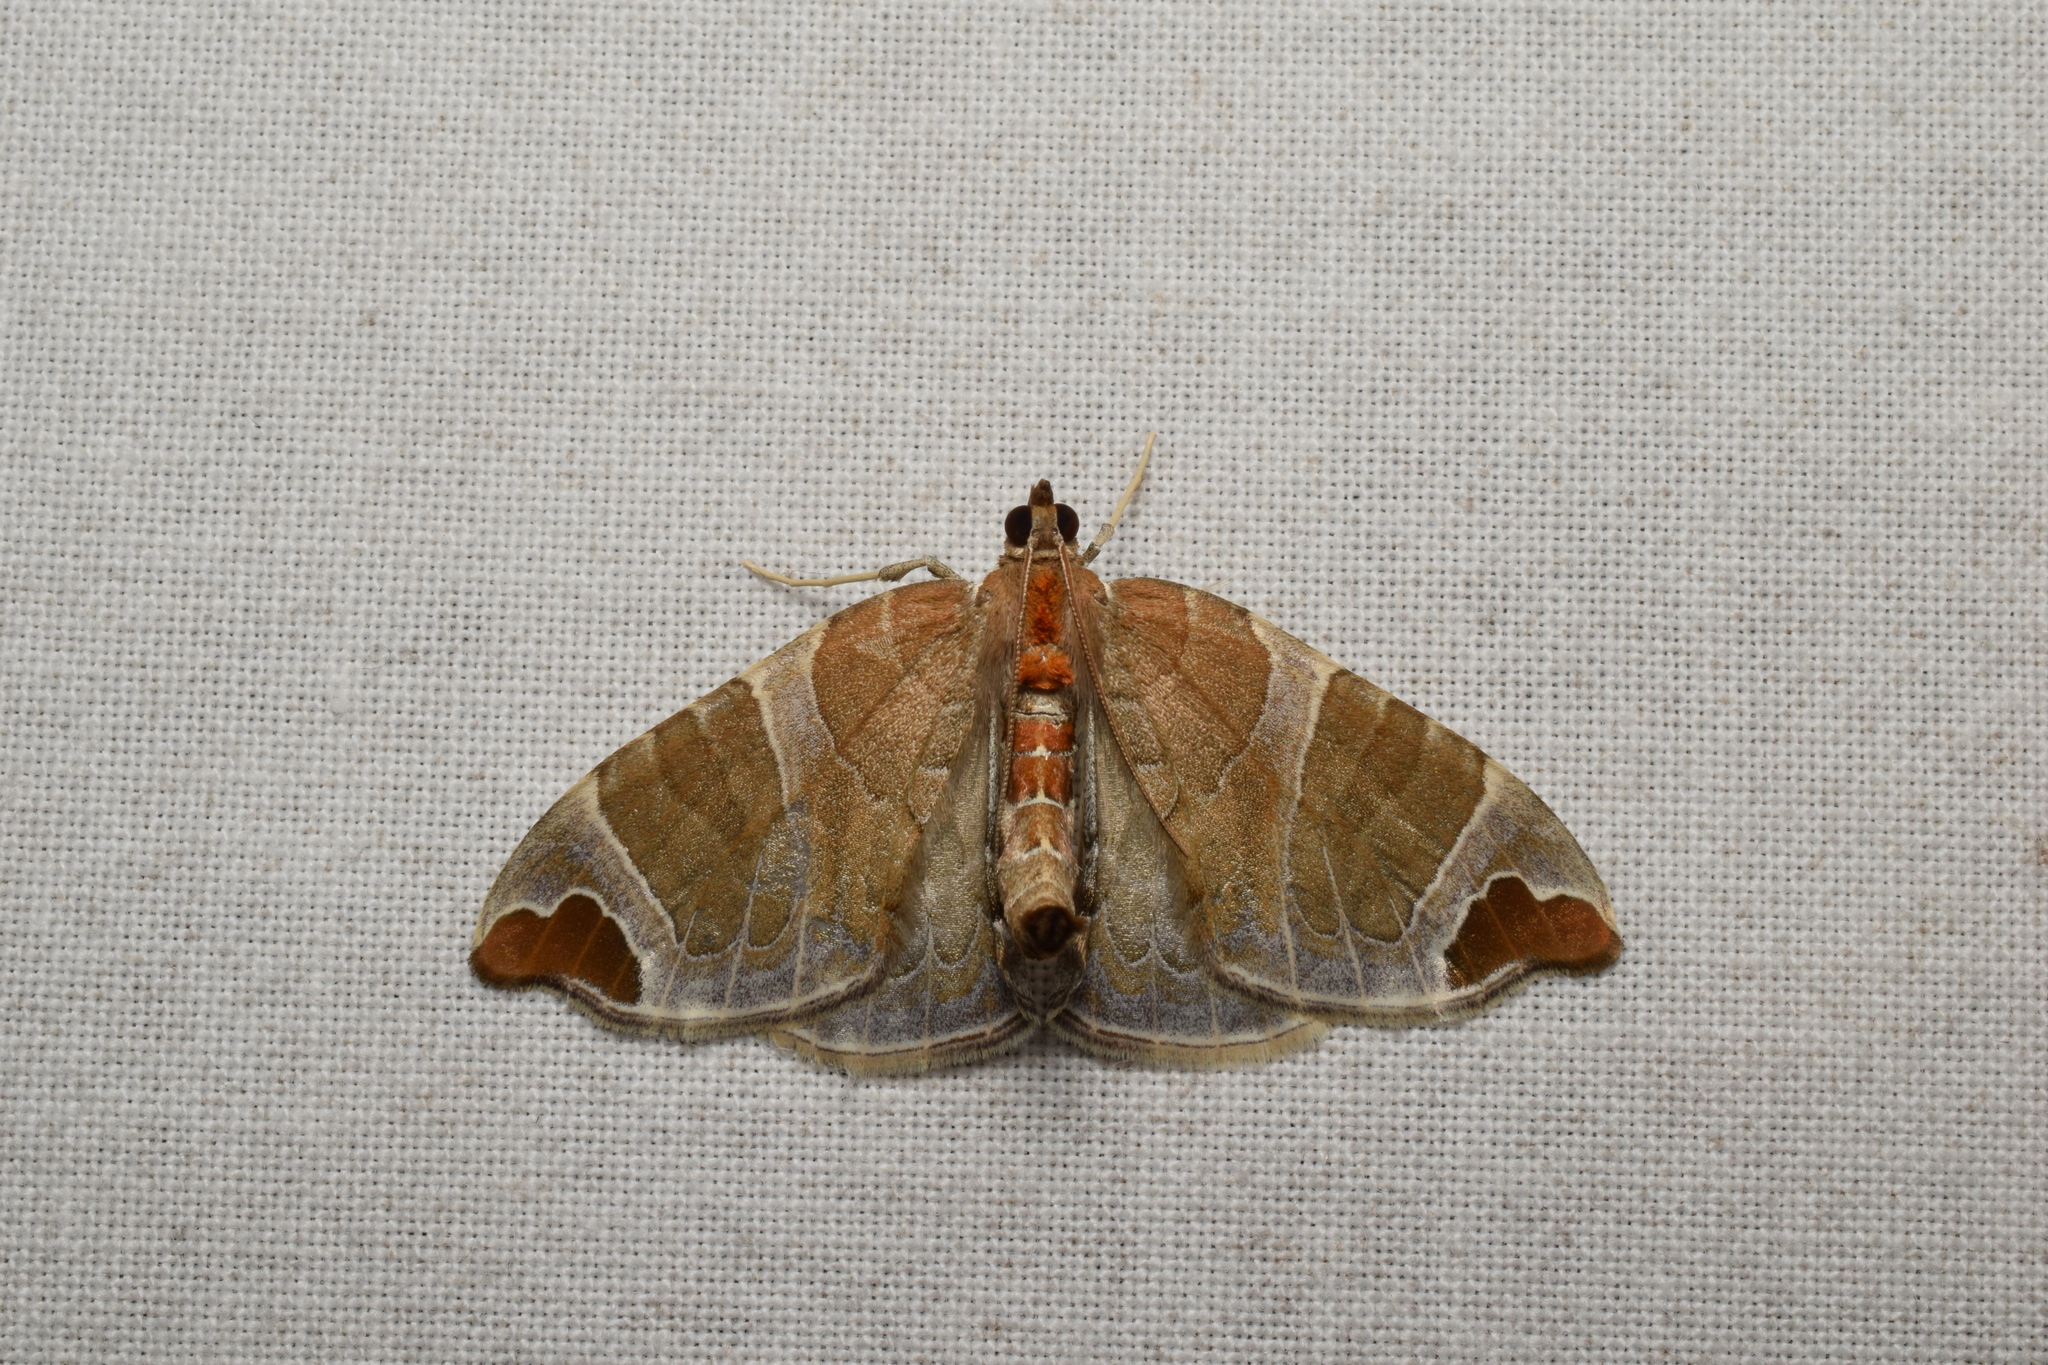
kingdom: Animalia
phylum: Arthropoda
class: Insecta
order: Lepidoptera
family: Geometridae
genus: Eulithis
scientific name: Eulithis ledereri
